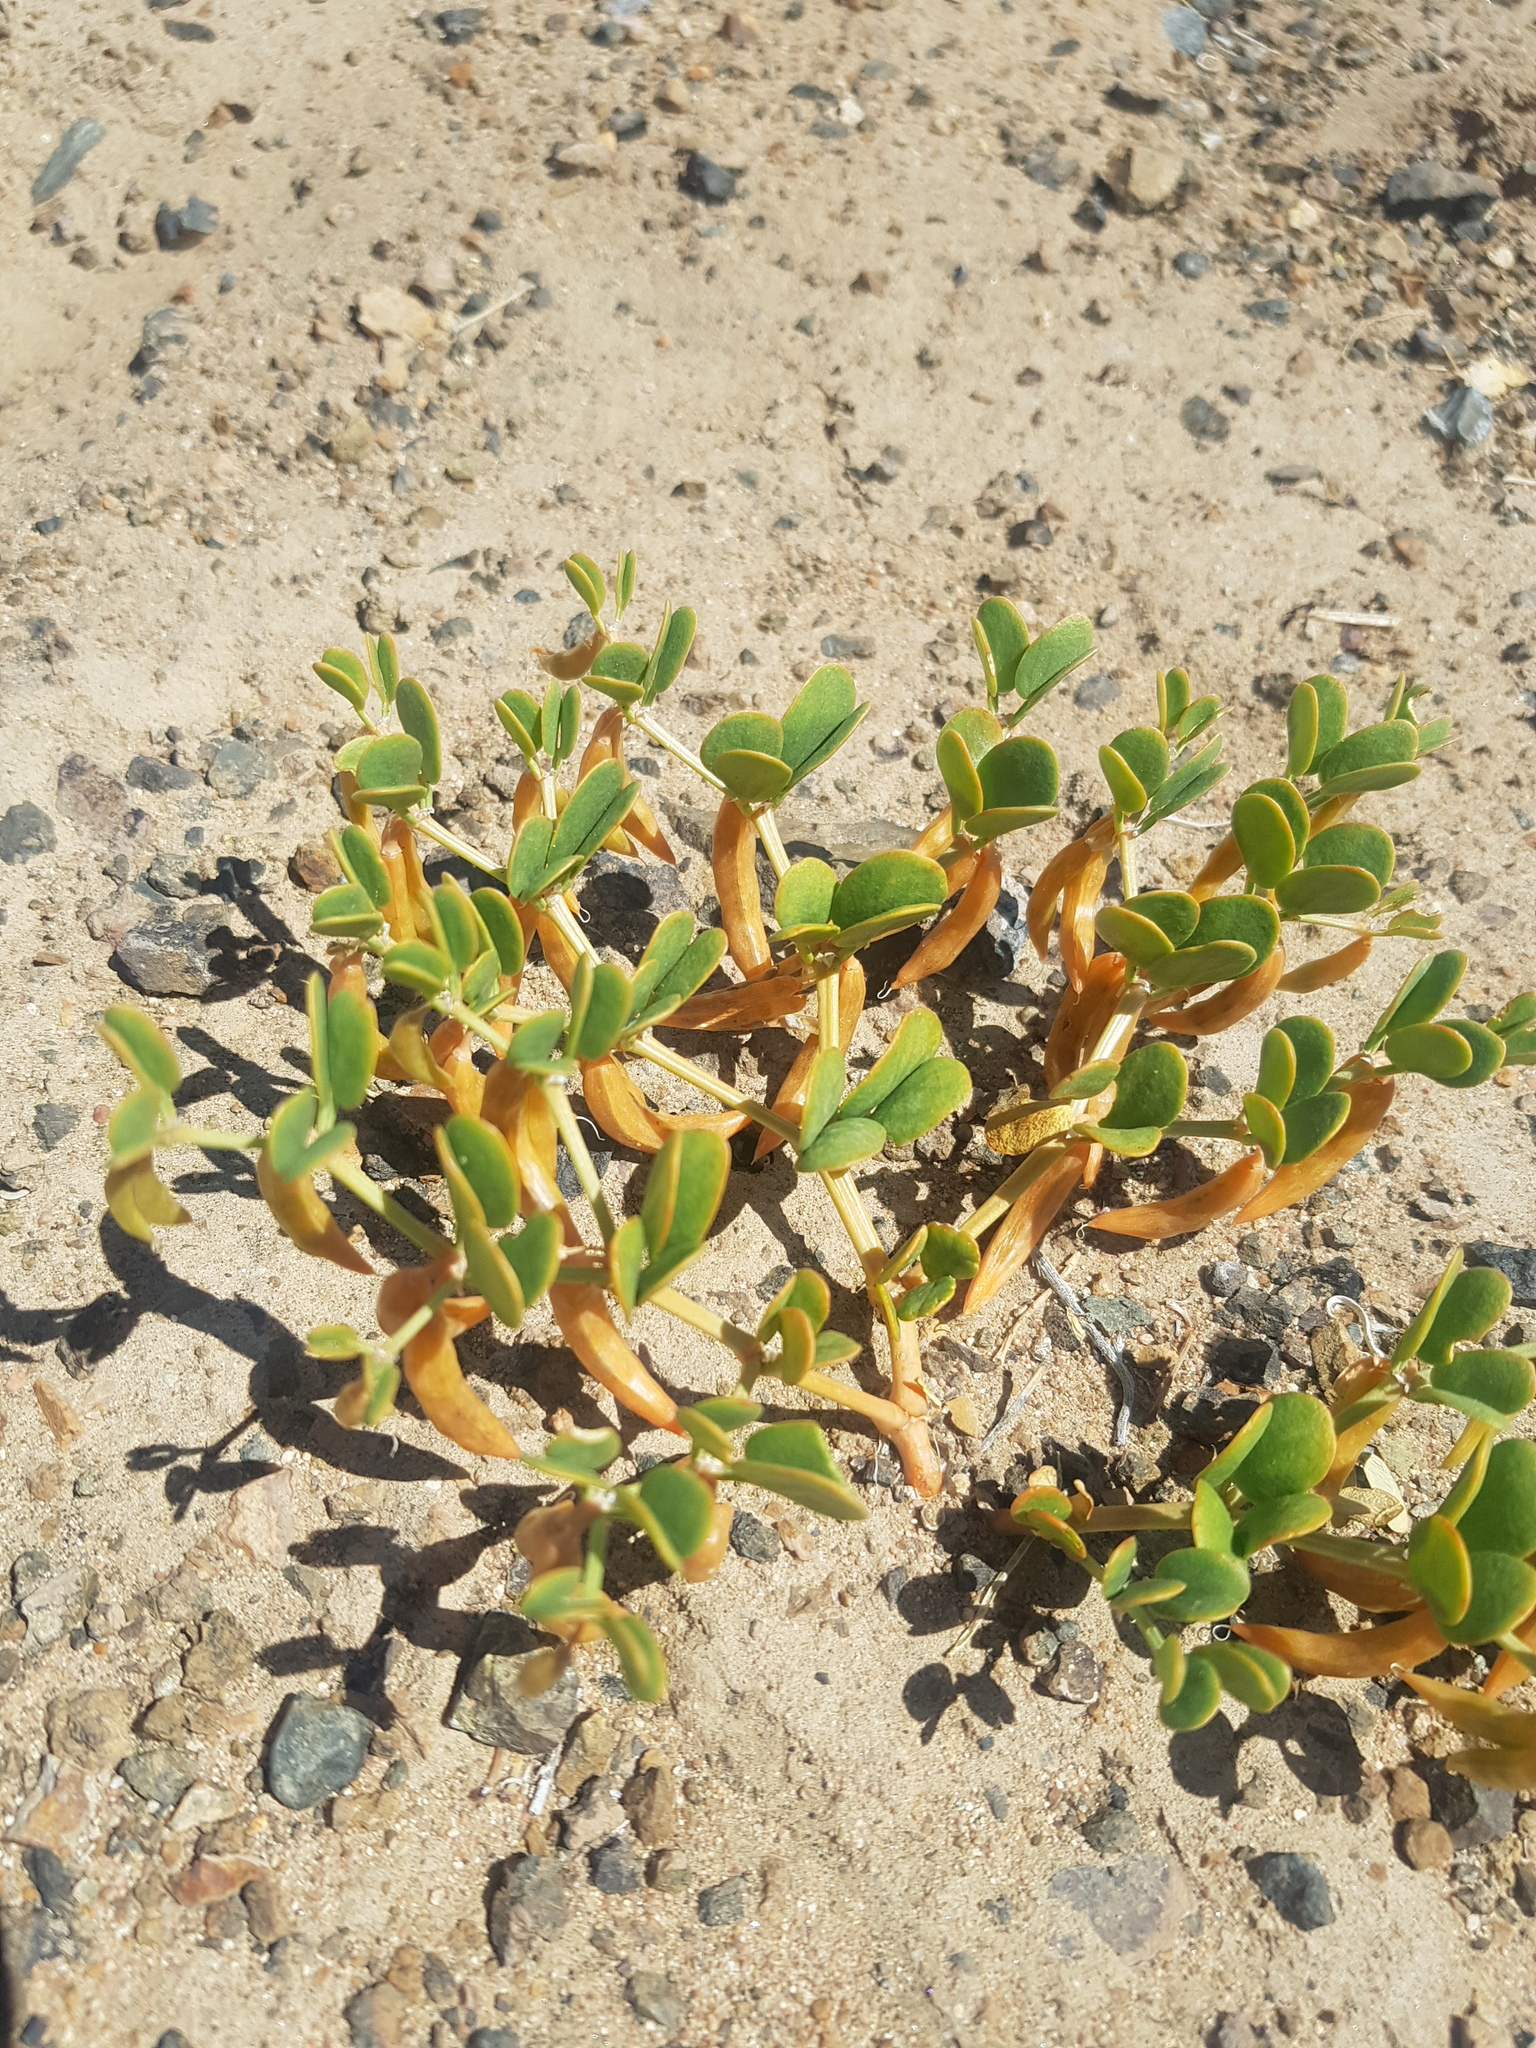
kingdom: Plantae
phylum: Tracheophyta
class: Magnoliopsida
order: Zygophyllales
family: Zygophyllaceae
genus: Zygophyllum
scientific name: Zygophyllum rosowii
